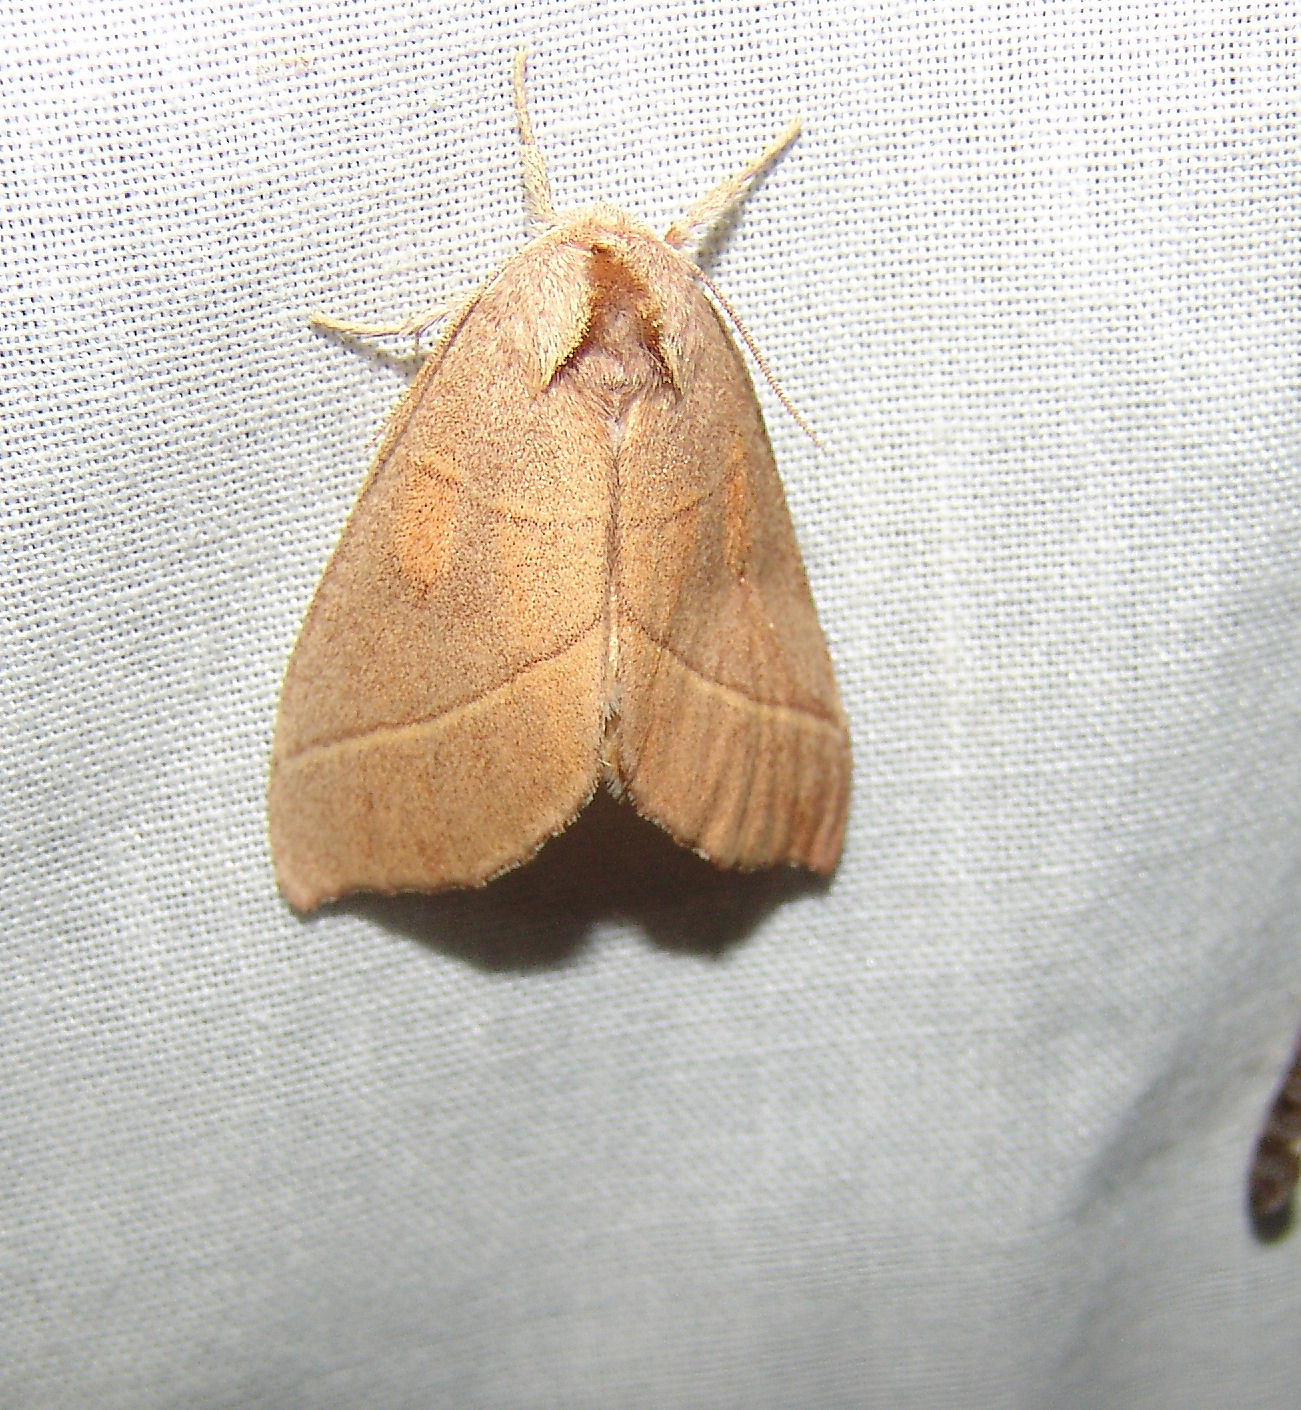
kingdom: Animalia
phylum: Arthropoda
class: Insecta
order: Lepidoptera
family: Notodontidae
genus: Nadata
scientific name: Nadata gibbosa
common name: White-dotted prominent
